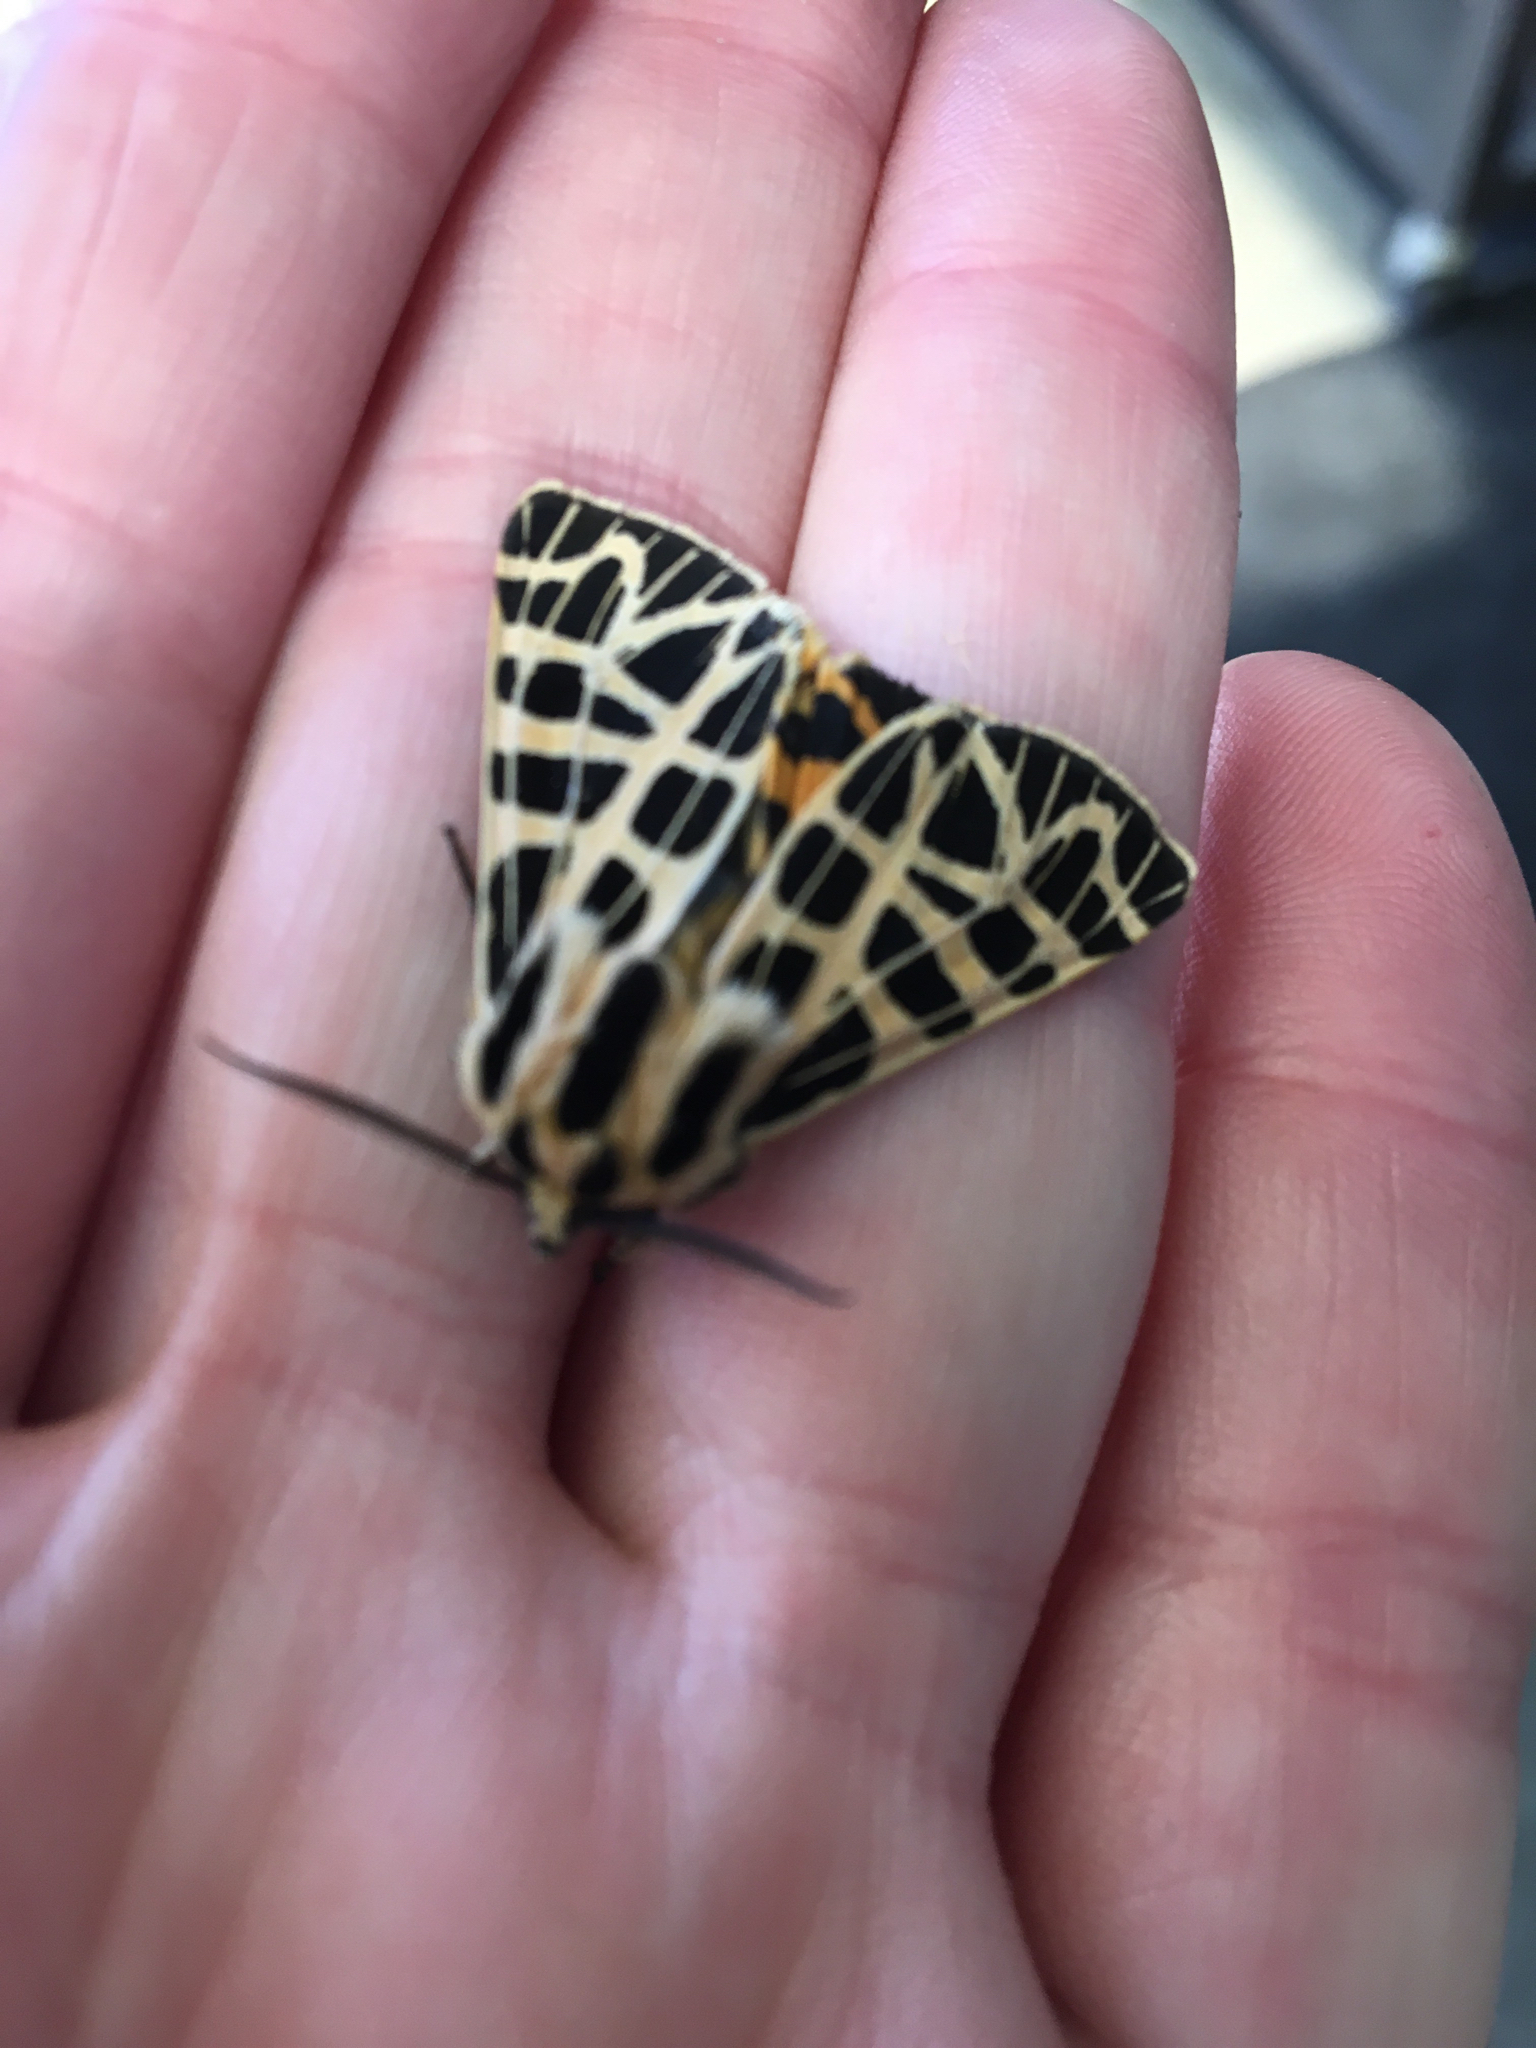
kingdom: Animalia
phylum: Arthropoda
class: Insecta
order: Lepidoptera
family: Erebidae
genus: Apantesis
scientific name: Apantesis
